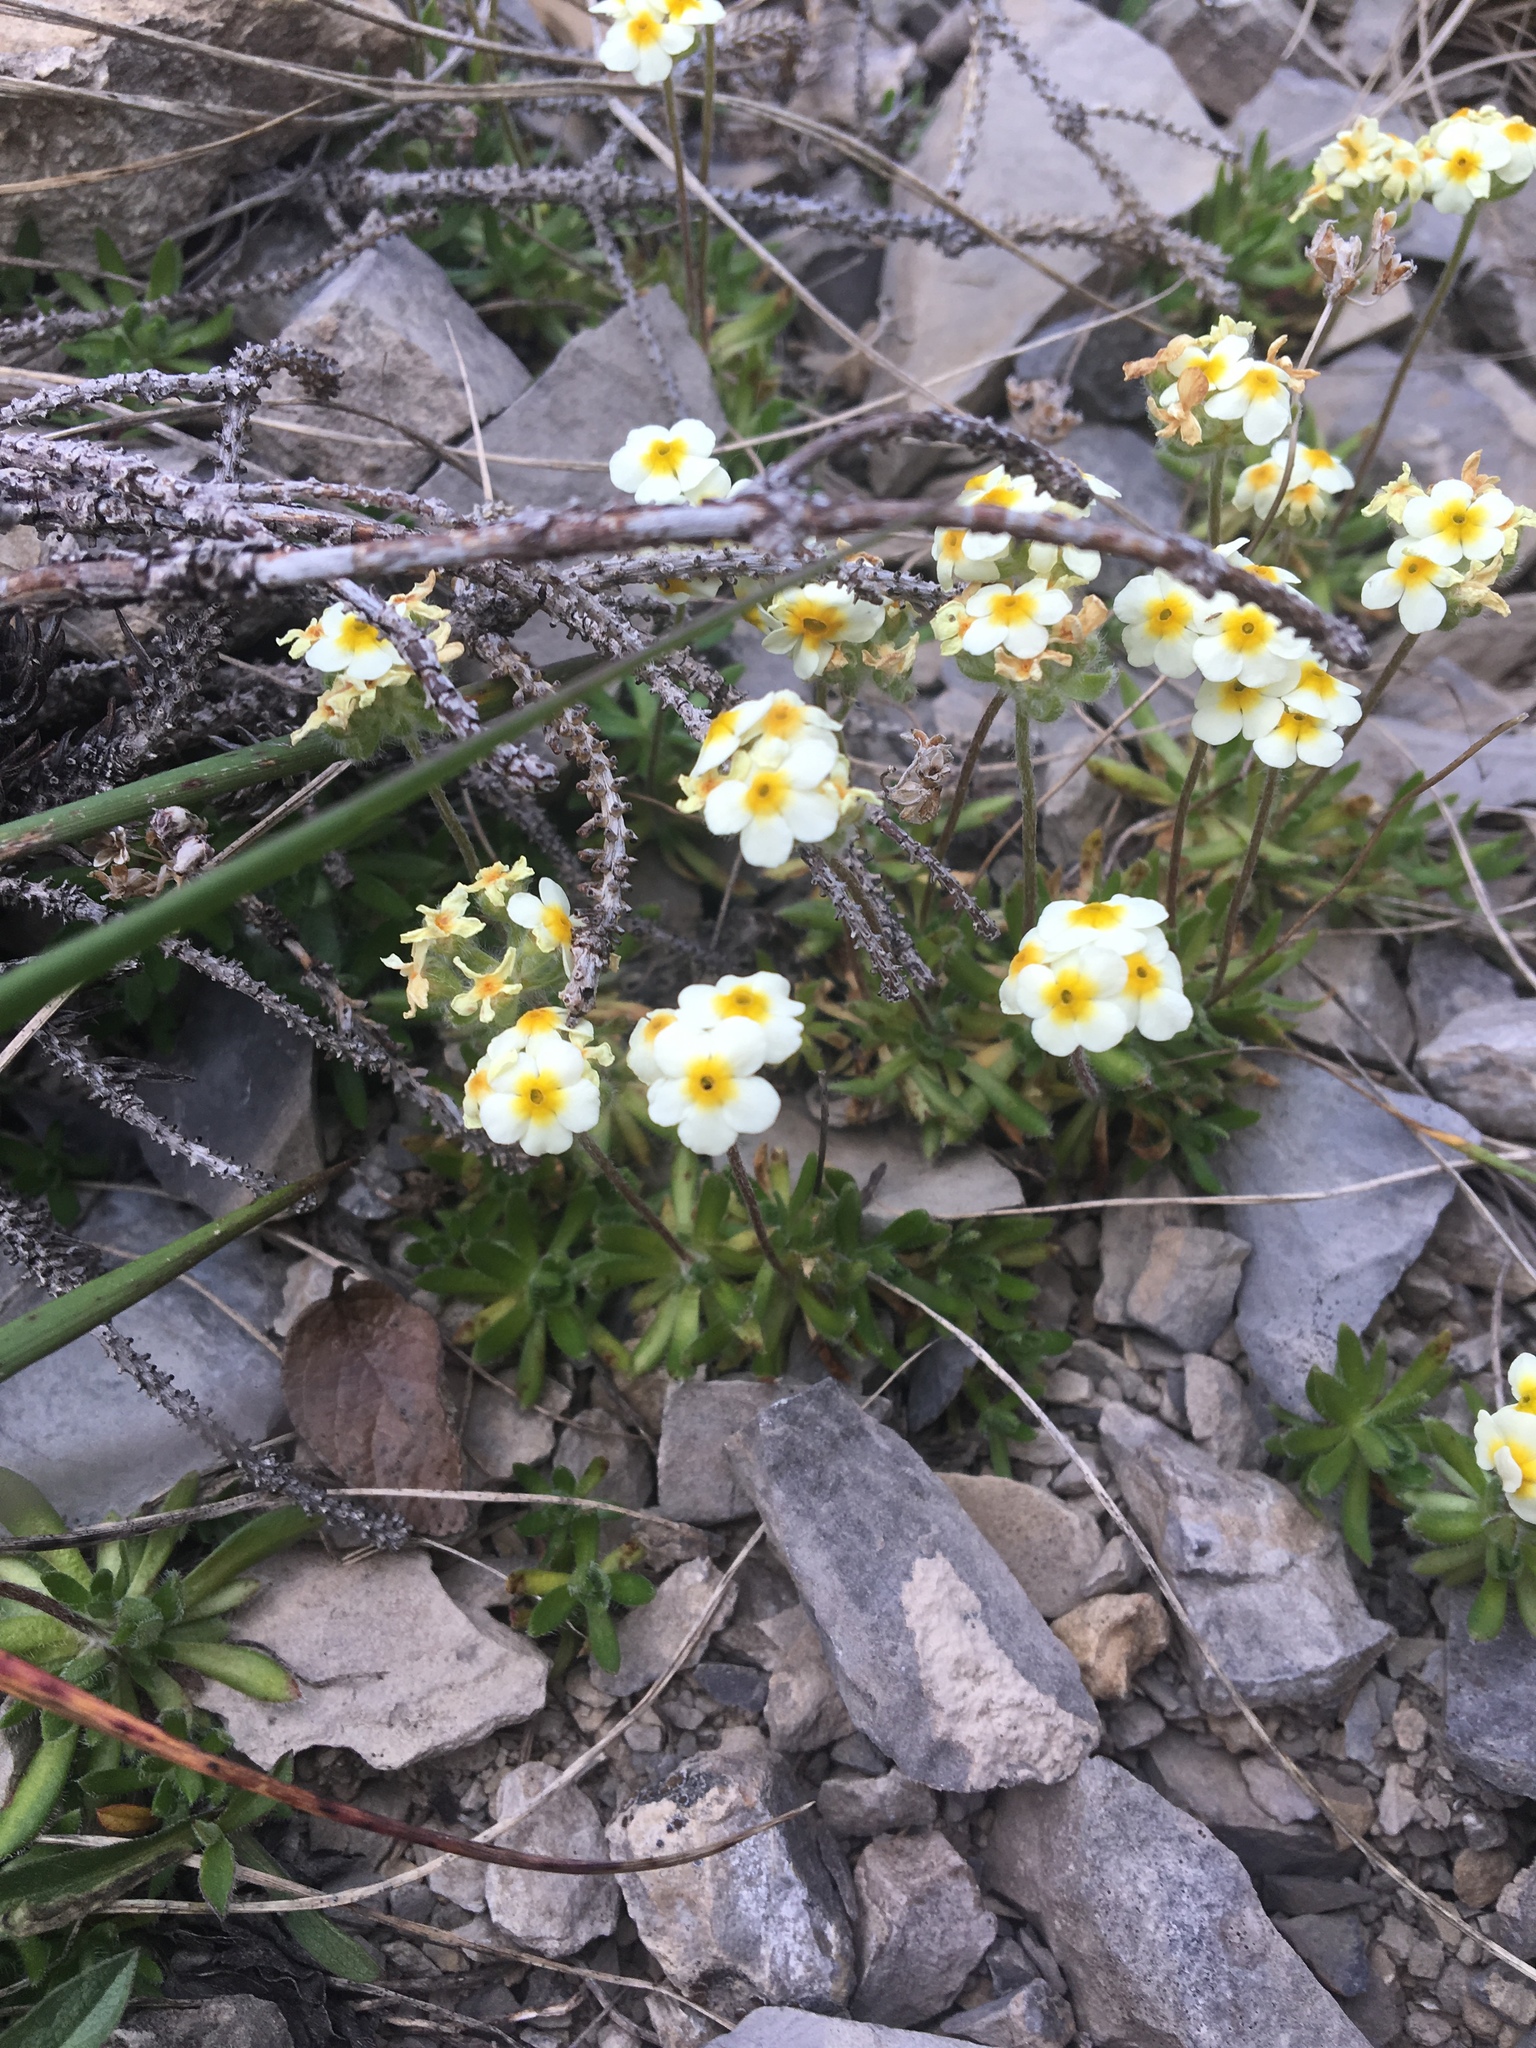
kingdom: Plantae
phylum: Tracheophyta
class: Magnoliopsida
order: Ericales
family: Primulaceae
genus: Androsace
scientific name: Androsace chamaejasme
